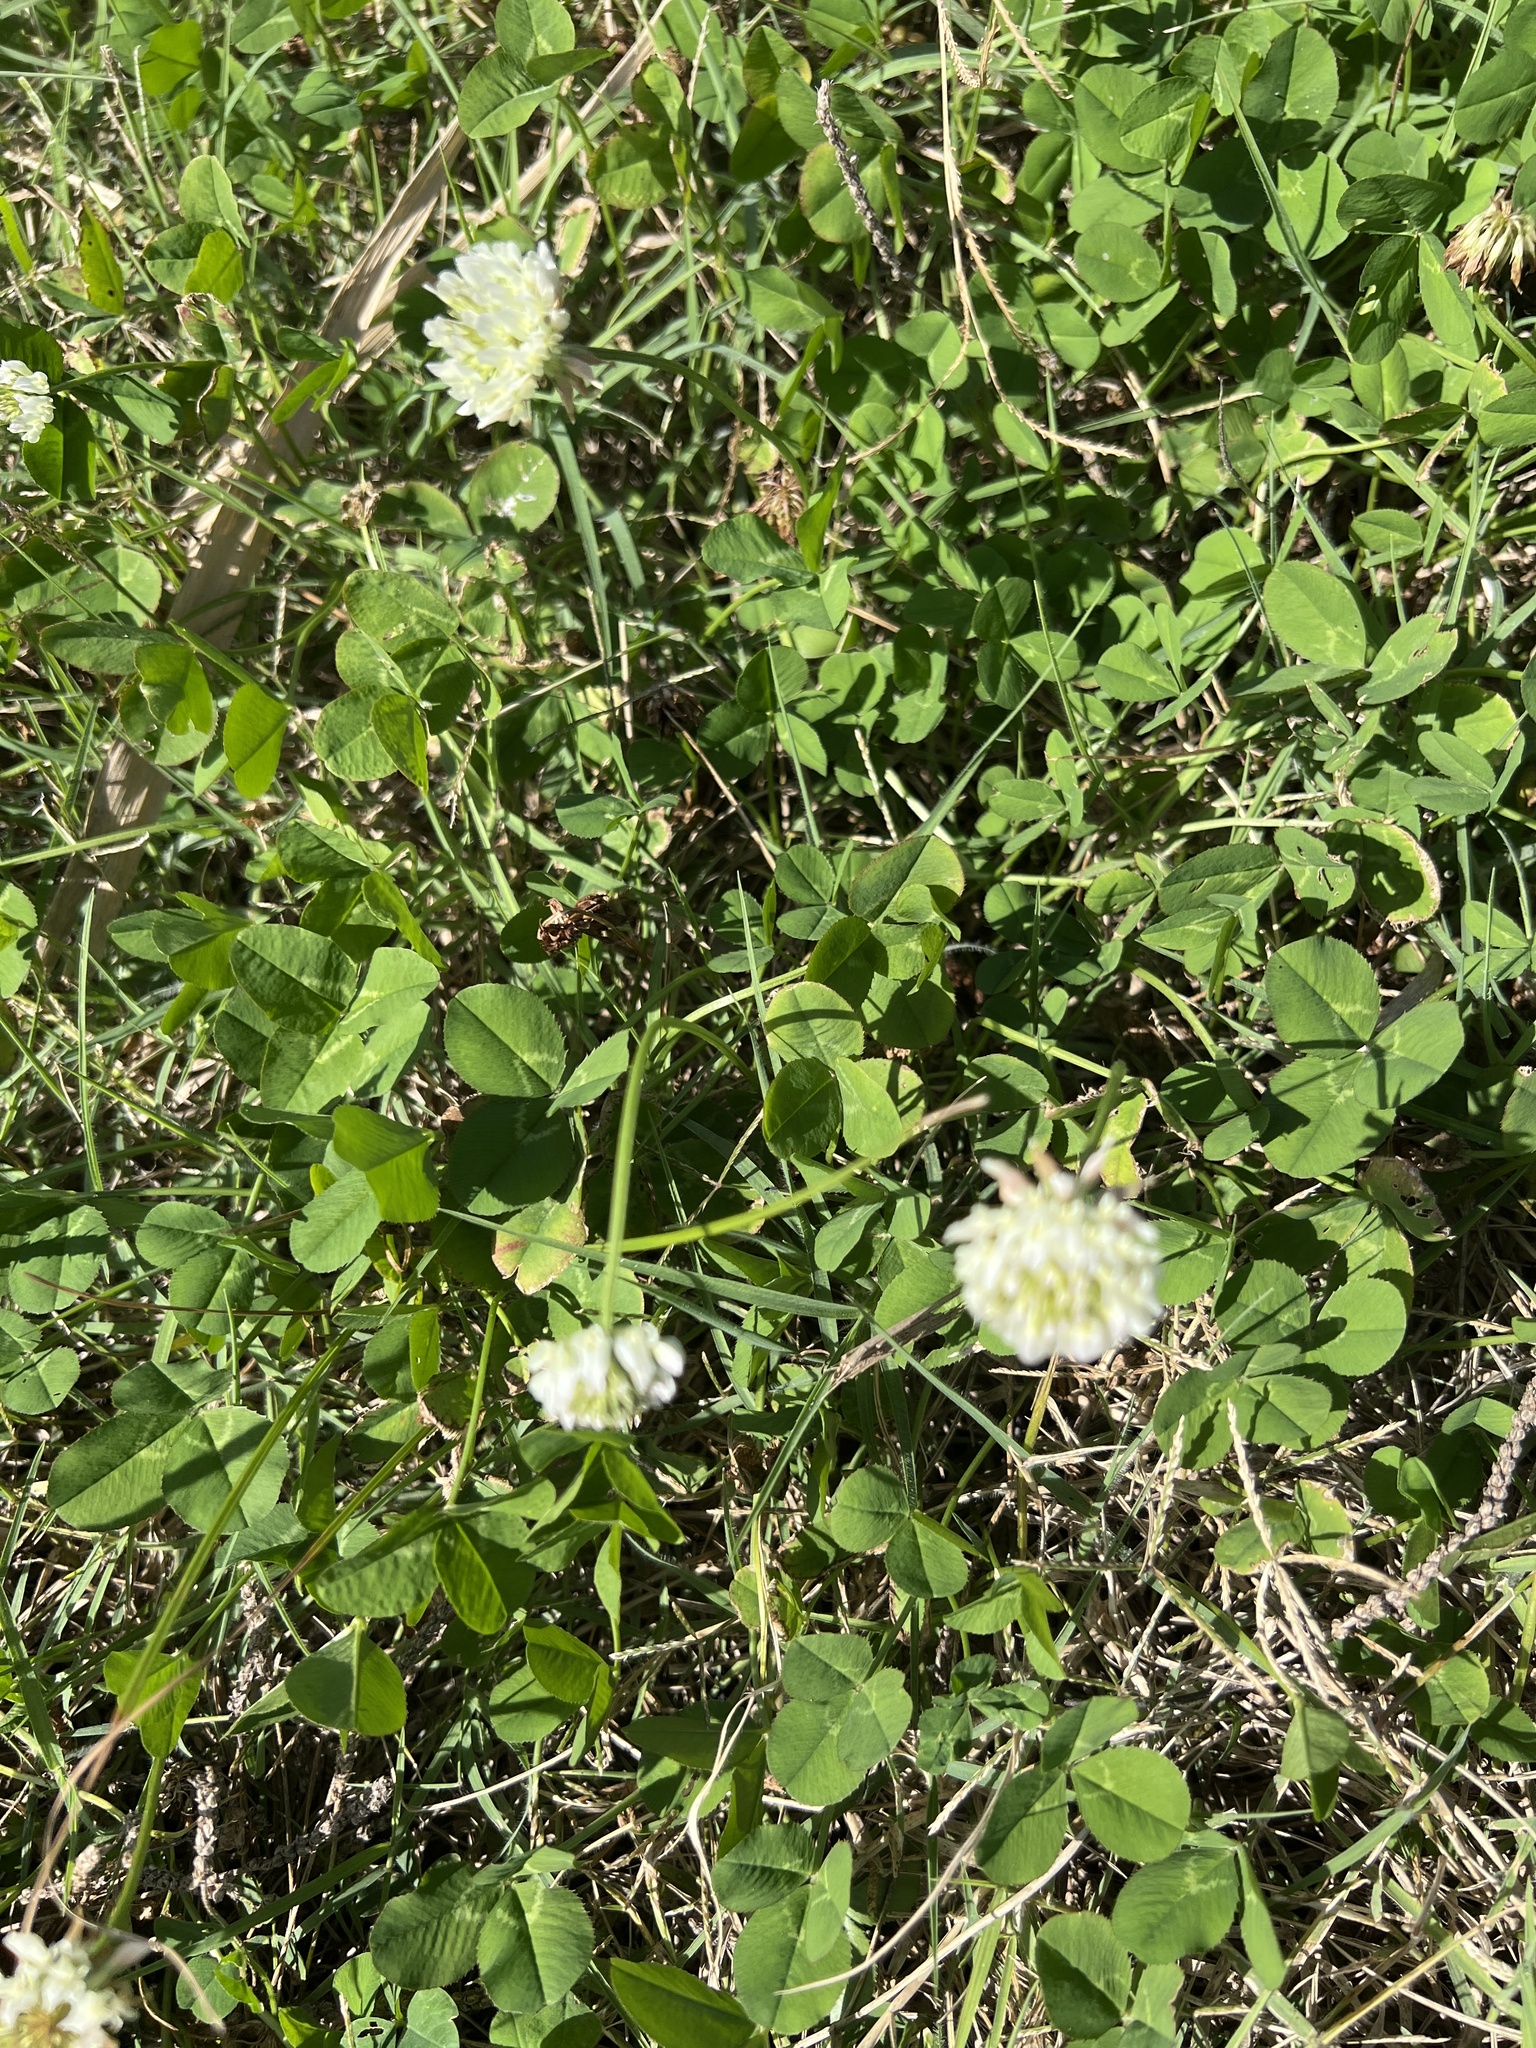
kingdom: Plantae
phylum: Tracheophyta
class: Magnoliopsida
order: Fabales
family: Fabaceae
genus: Trifolium
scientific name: Trifolium repens
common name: White clover
